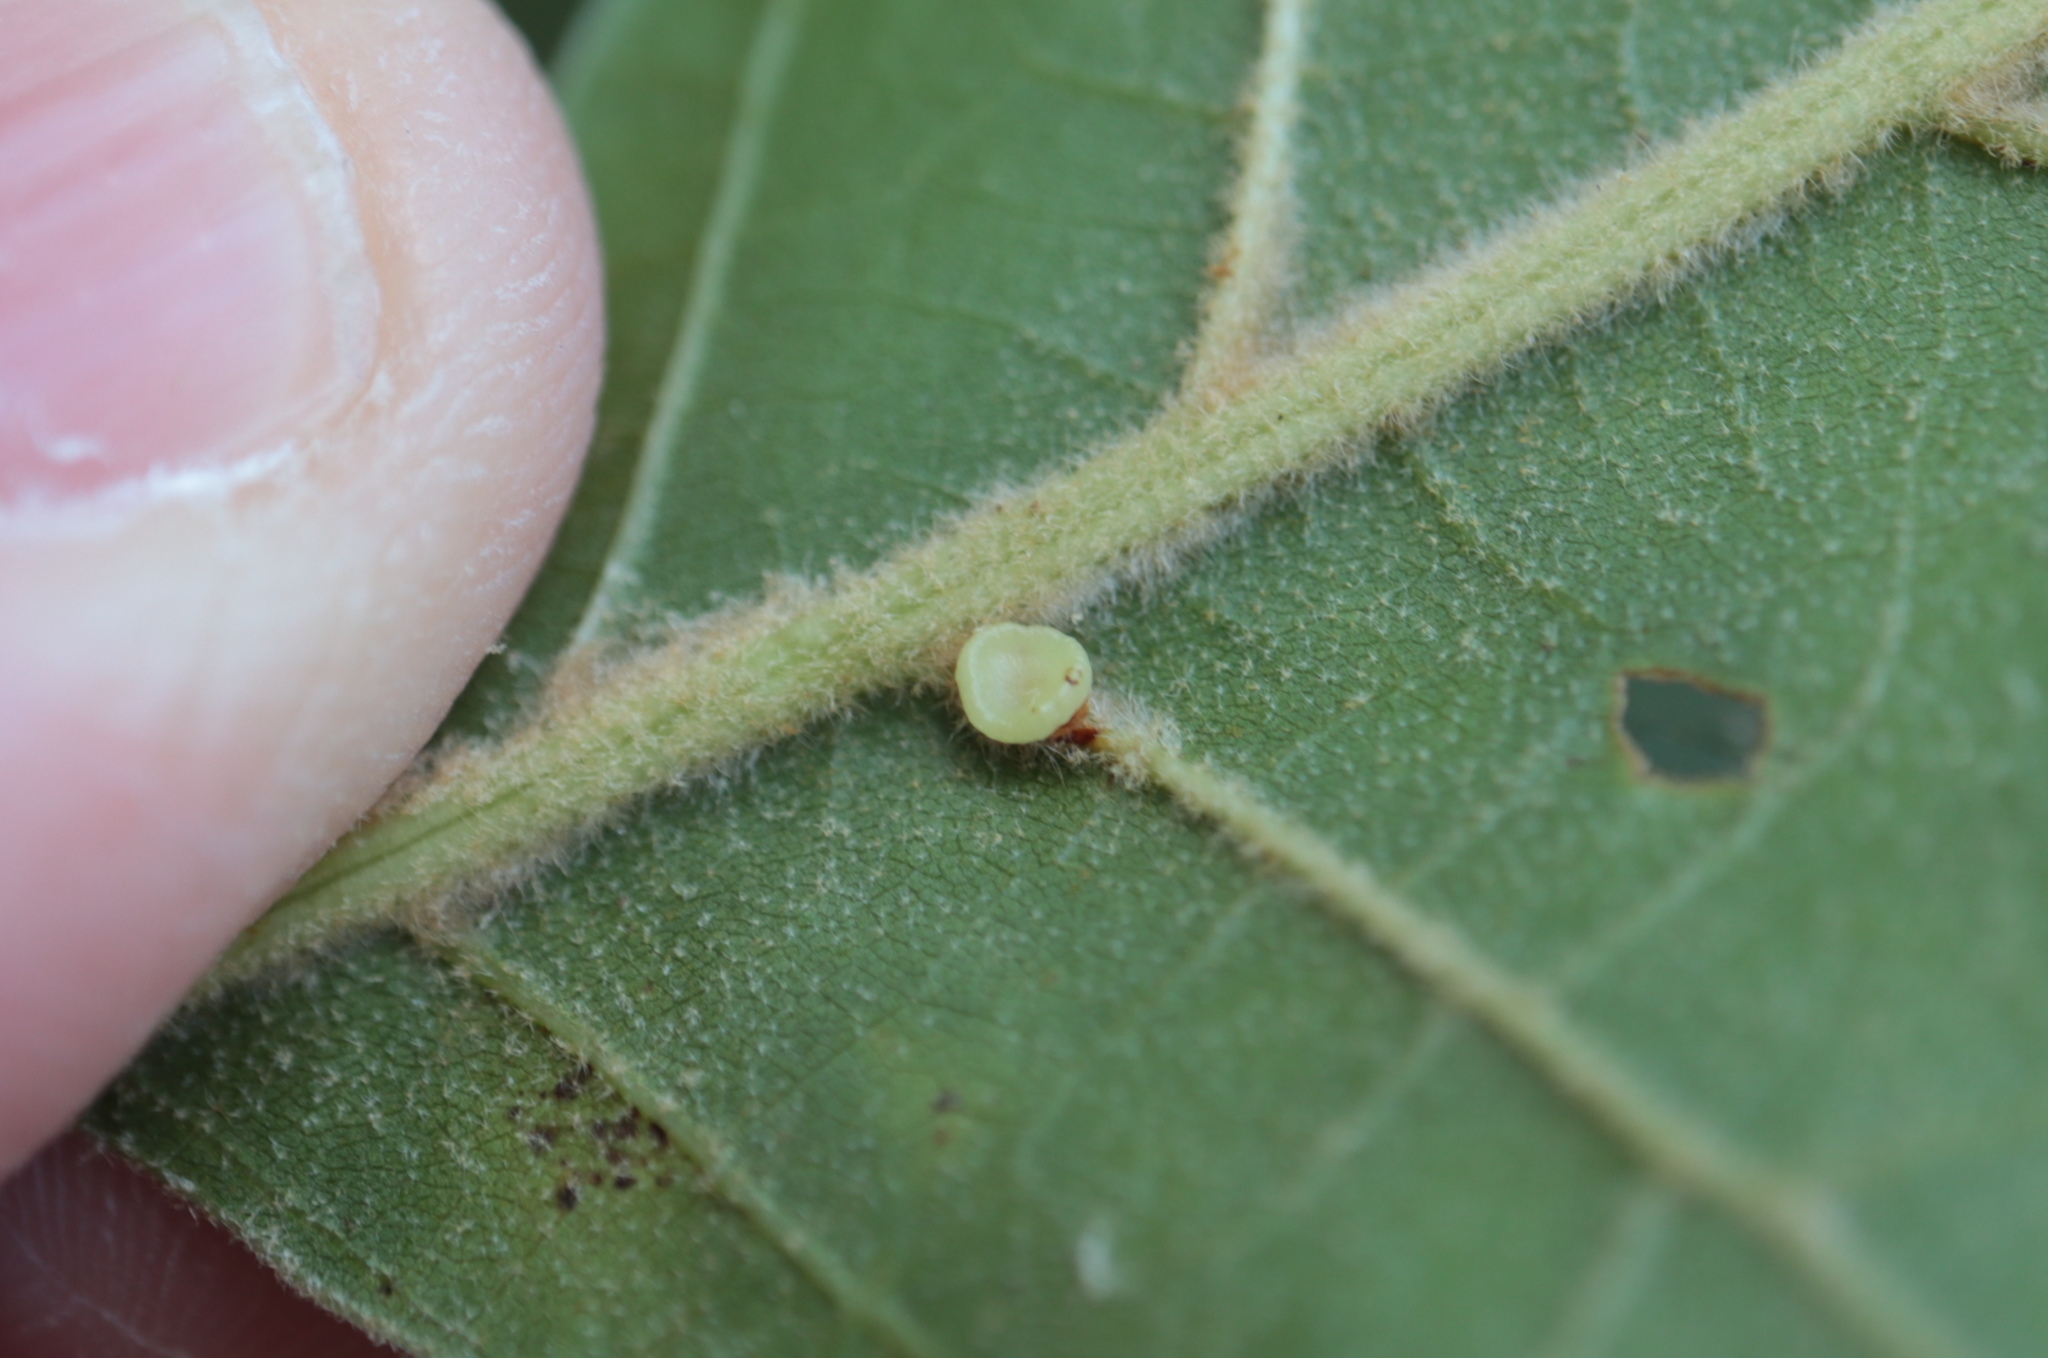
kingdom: Animalia
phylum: Arthropoda
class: Insecta
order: Hymenoptera
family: Cynipidae
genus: Kokkocynips
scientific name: Kokkocynips rileyi
